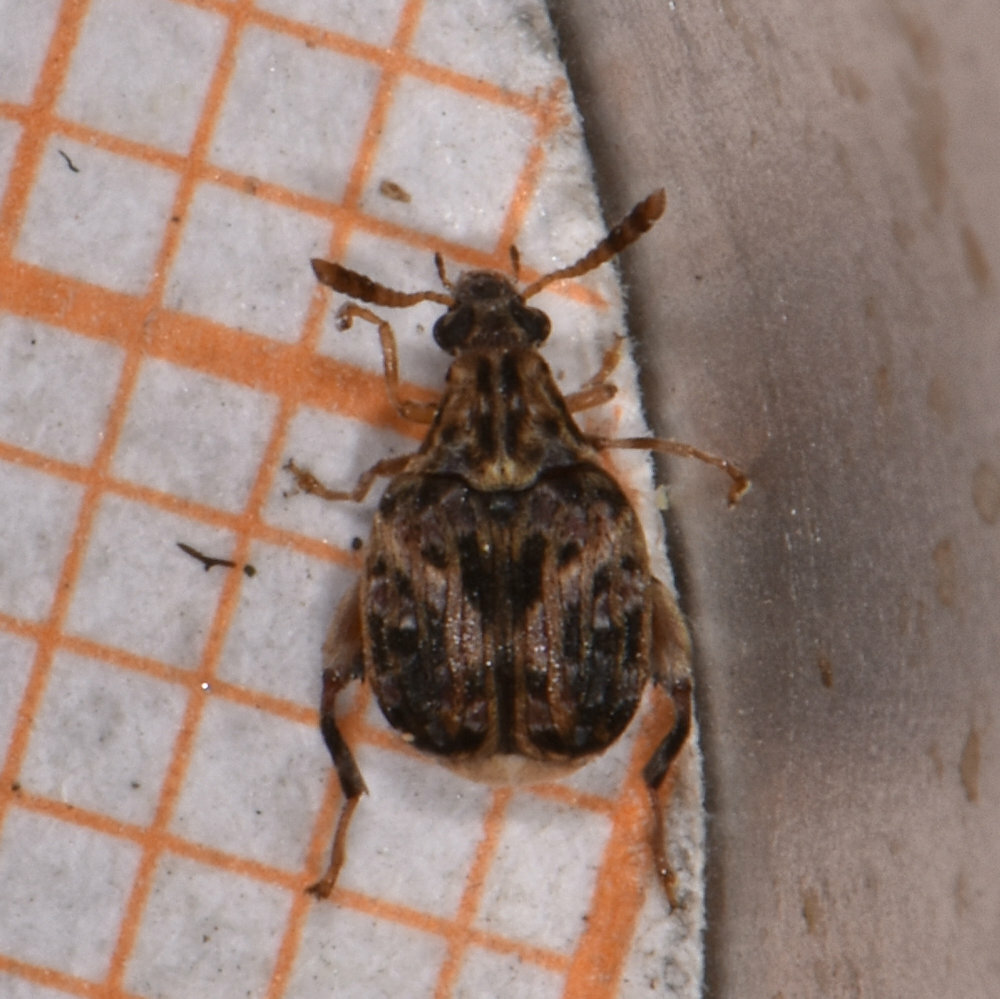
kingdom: Animalia
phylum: Arthropoda
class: Insecta
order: Coleoptera
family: Chrysomelidae
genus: Gibbobruchus
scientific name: Gibbobruchus mimus
